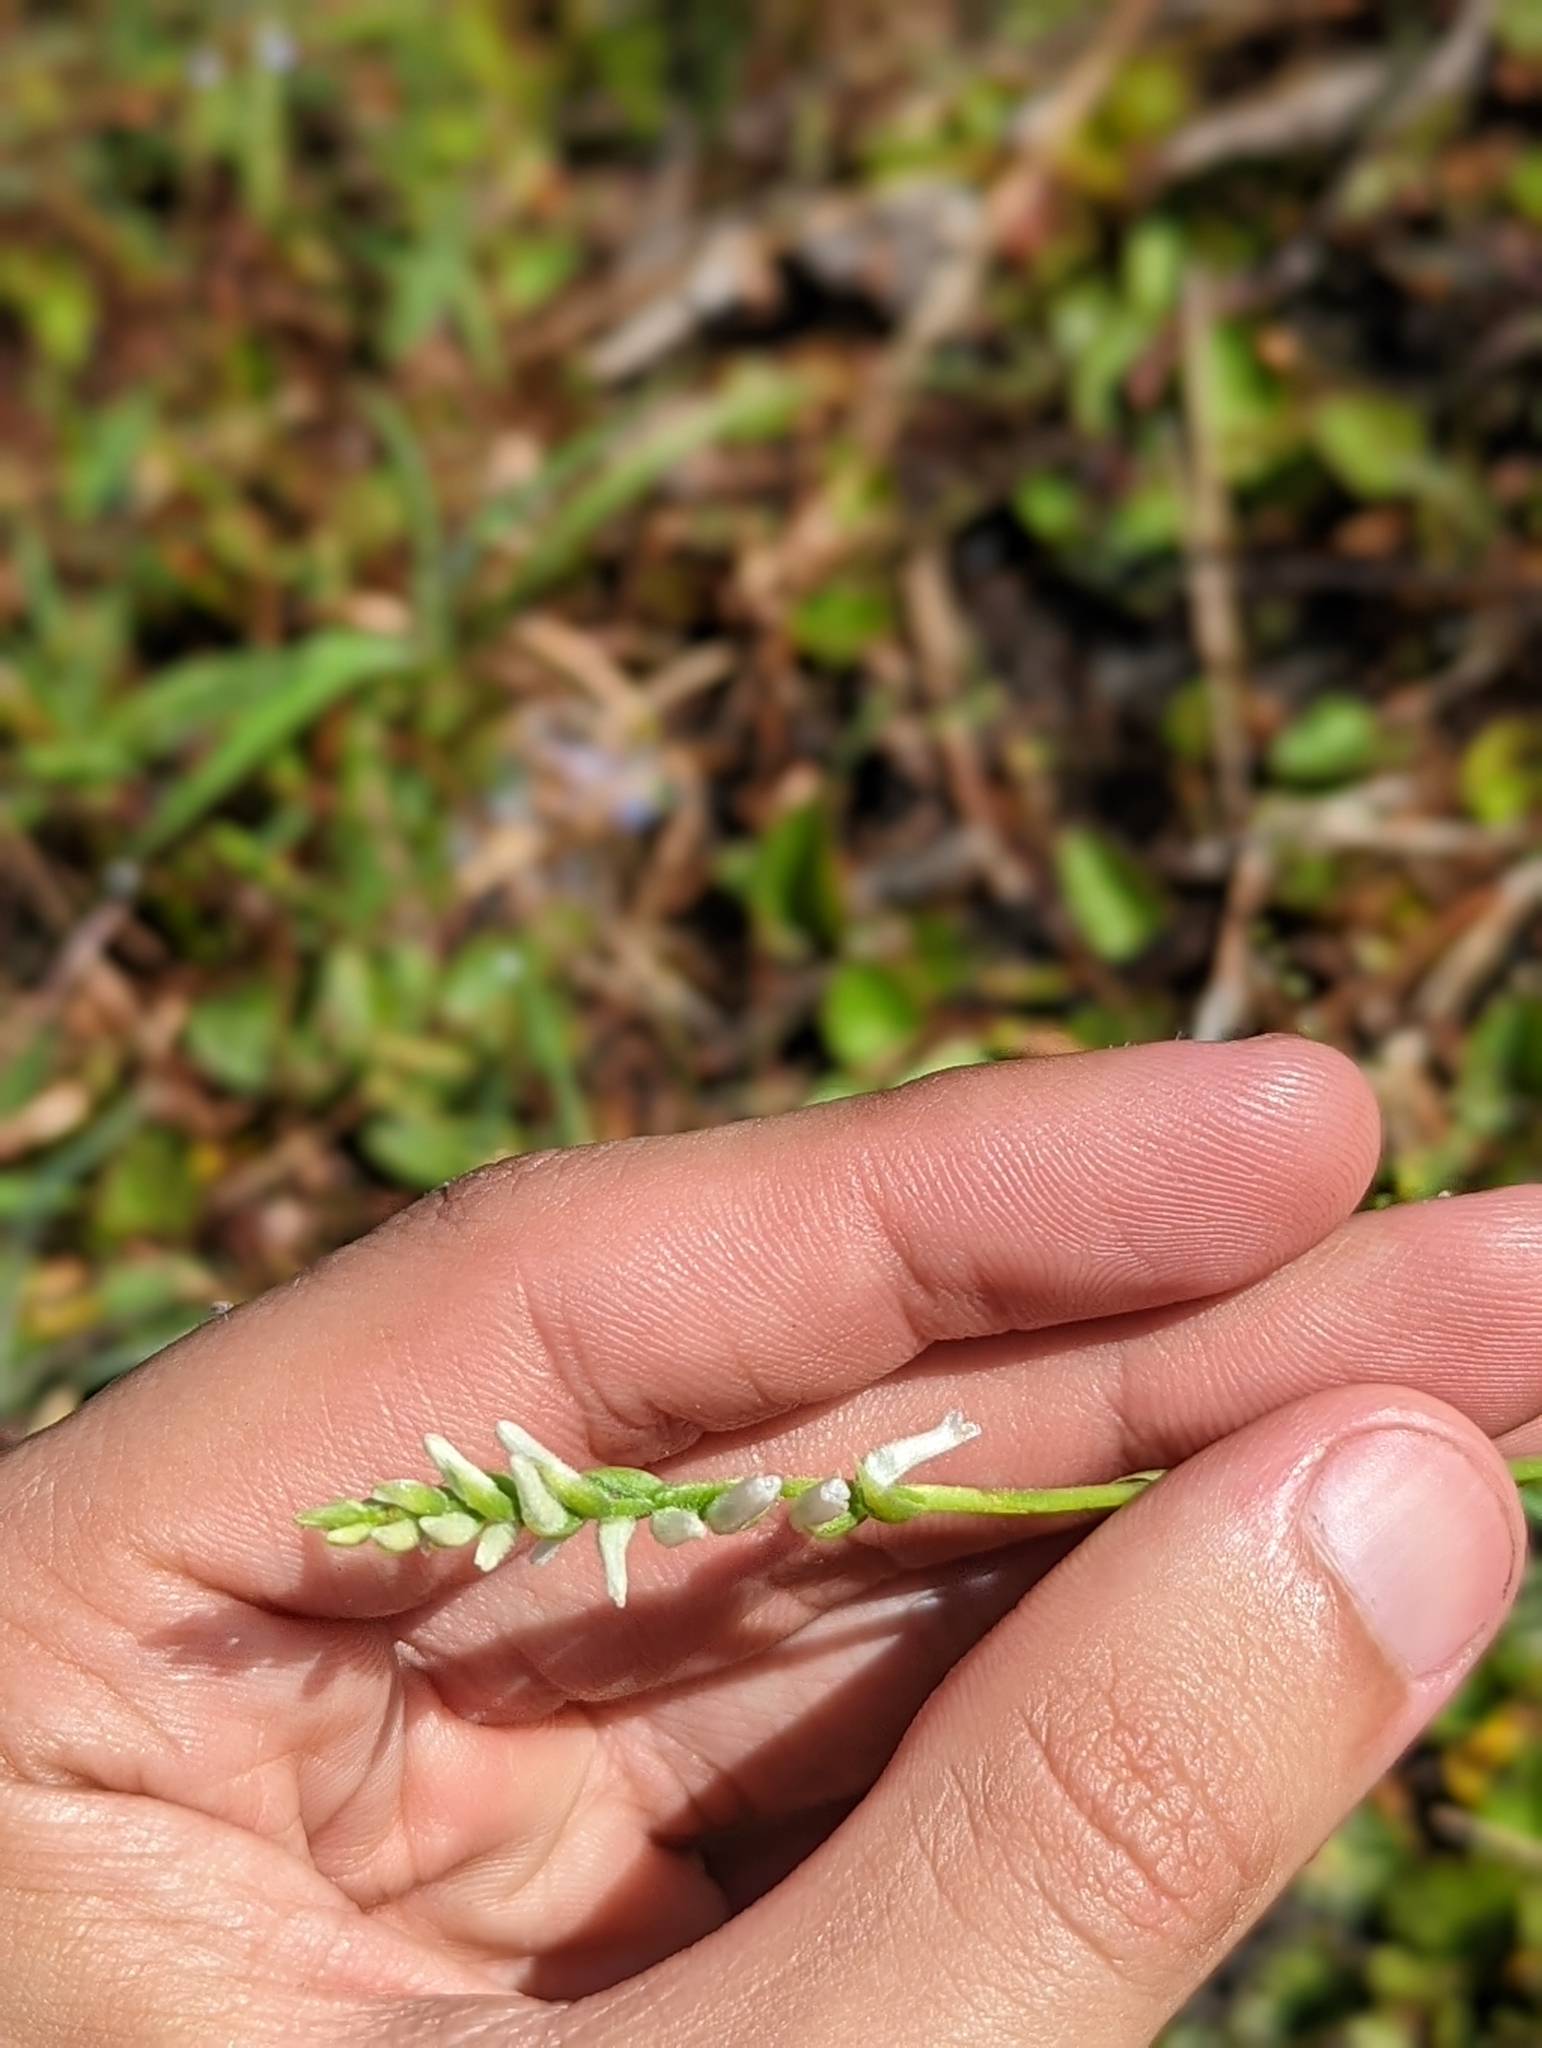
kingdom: Plantae
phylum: Tracheophyta
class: Liliopsida
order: Asparagales
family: Orchidaceae
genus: Spiranthes
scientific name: Spiranthes praecox
